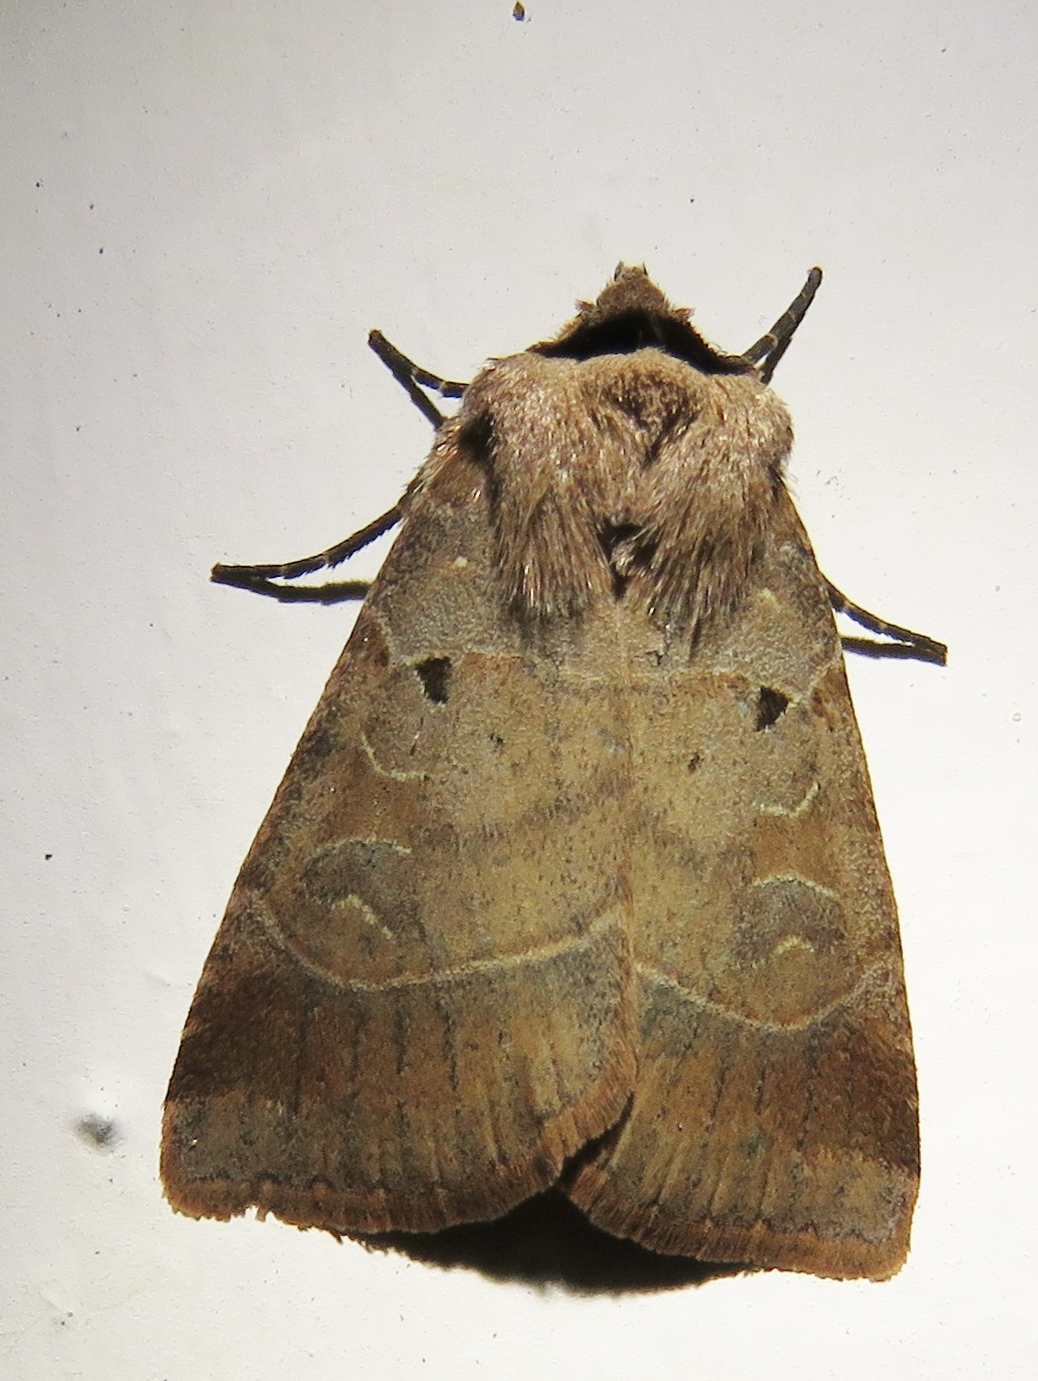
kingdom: Animalia
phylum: Arthropoda
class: Insecta
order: Lepidoptera
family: Noctuidae
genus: Agnorisma
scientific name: Agnorisma badinodis
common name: Pale-banded dart
